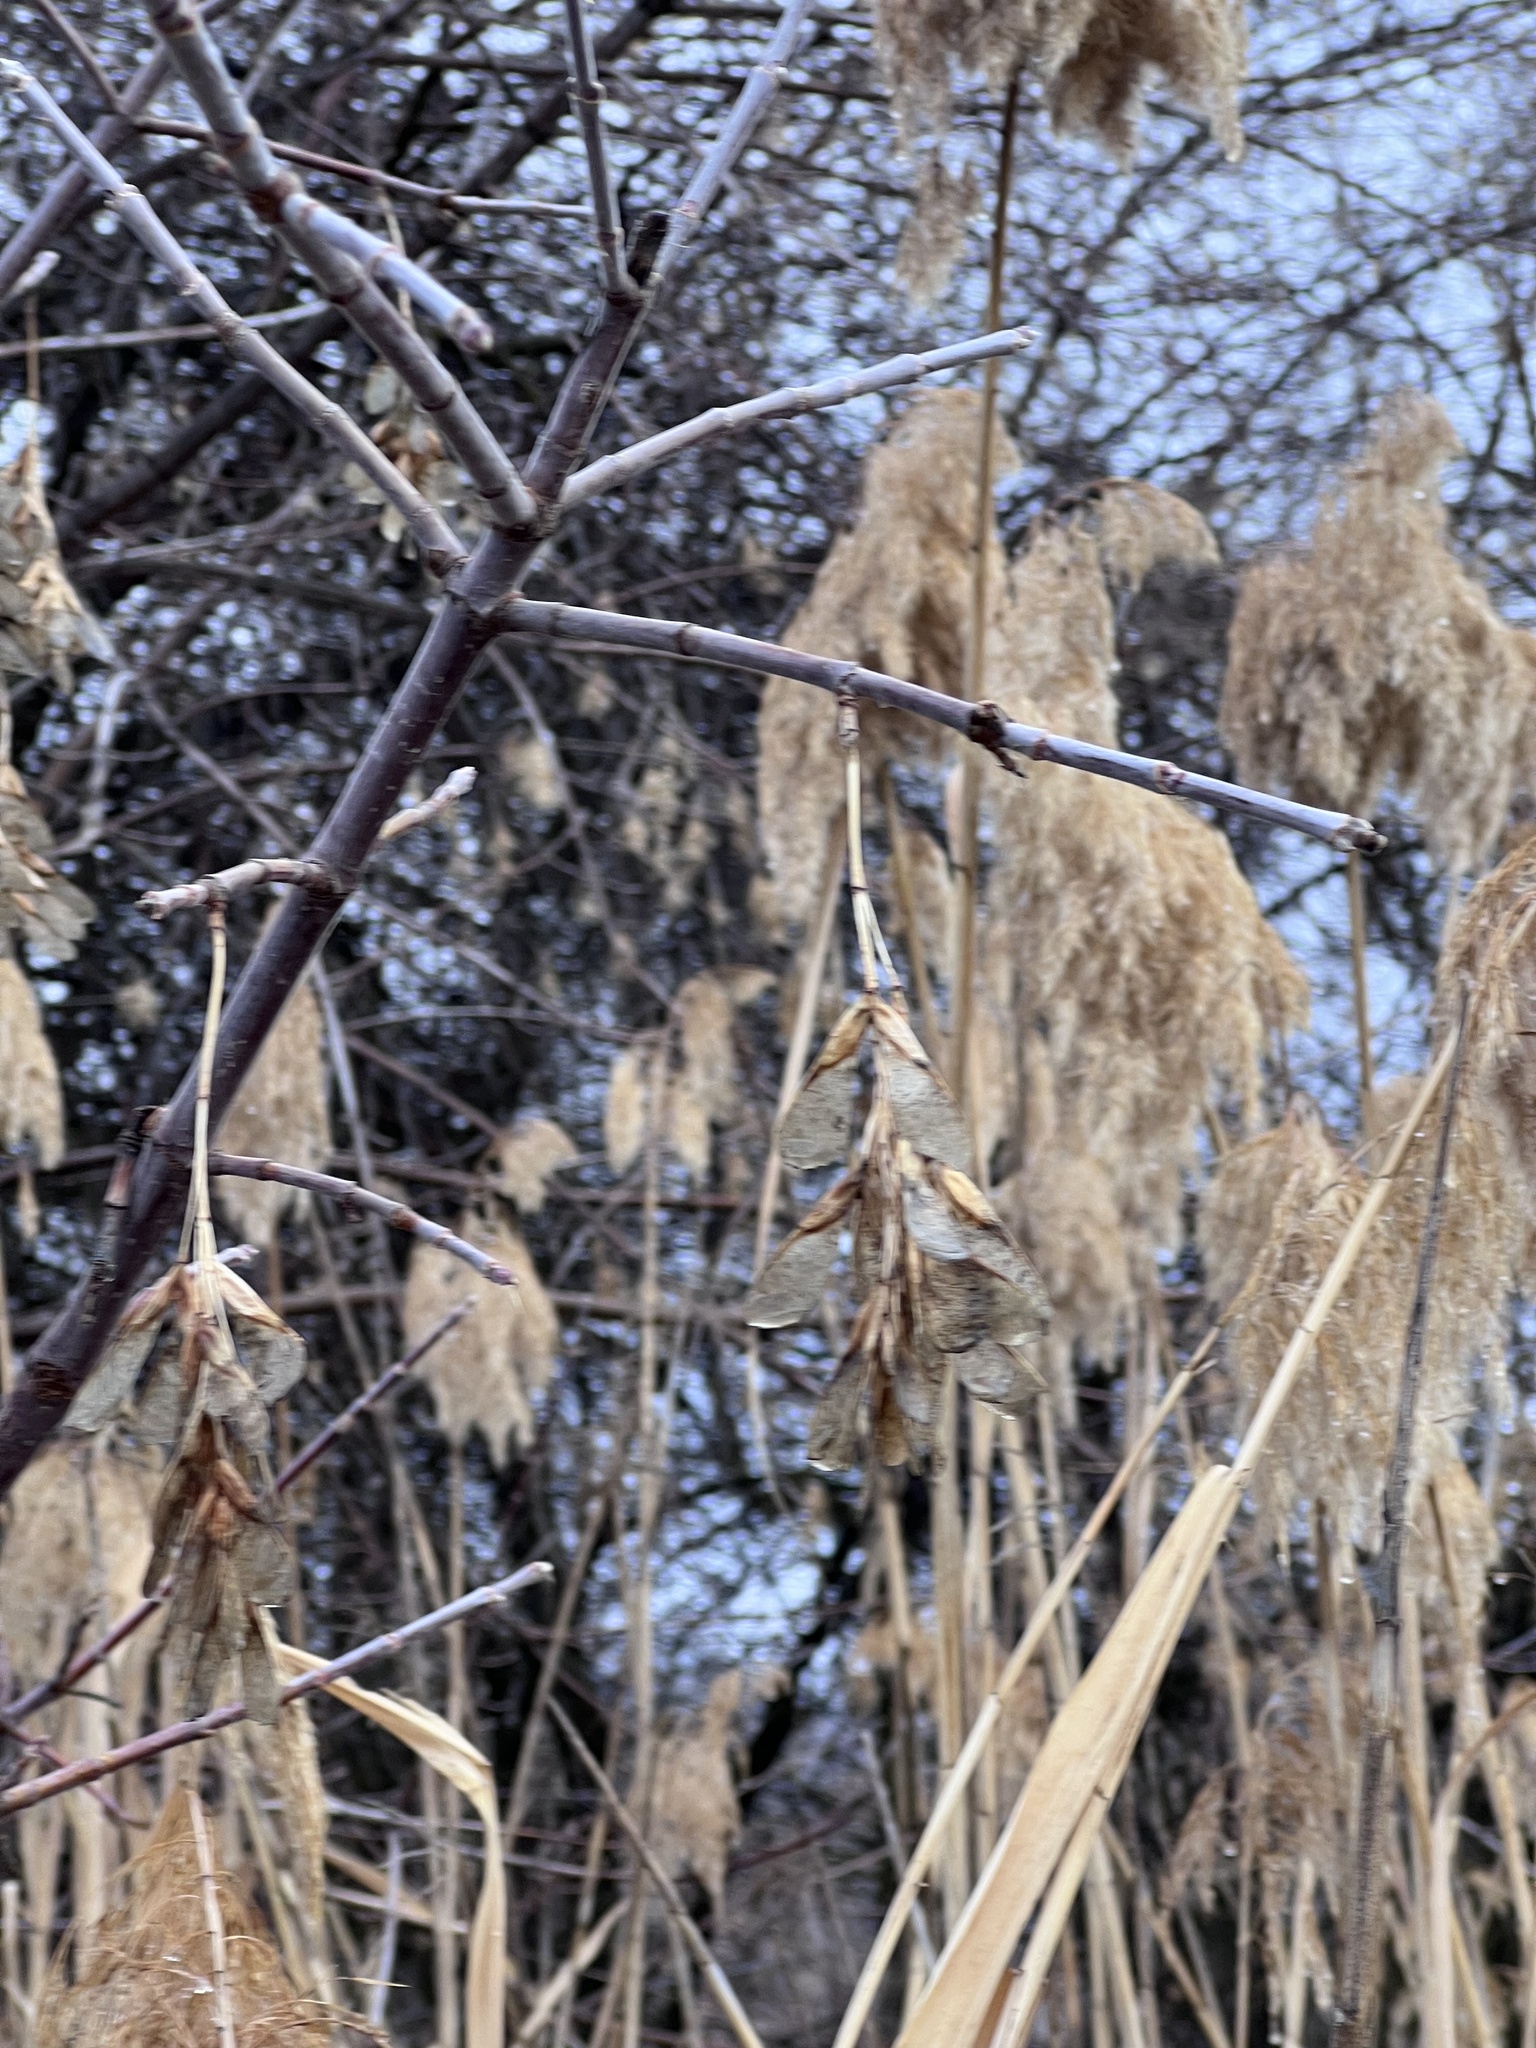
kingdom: Plantae
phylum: Tracheophyta
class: Magnoliopsida
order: Sapindales
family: Sapindaceae
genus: Acer
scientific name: Acer negundo
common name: Ashleaf maple
